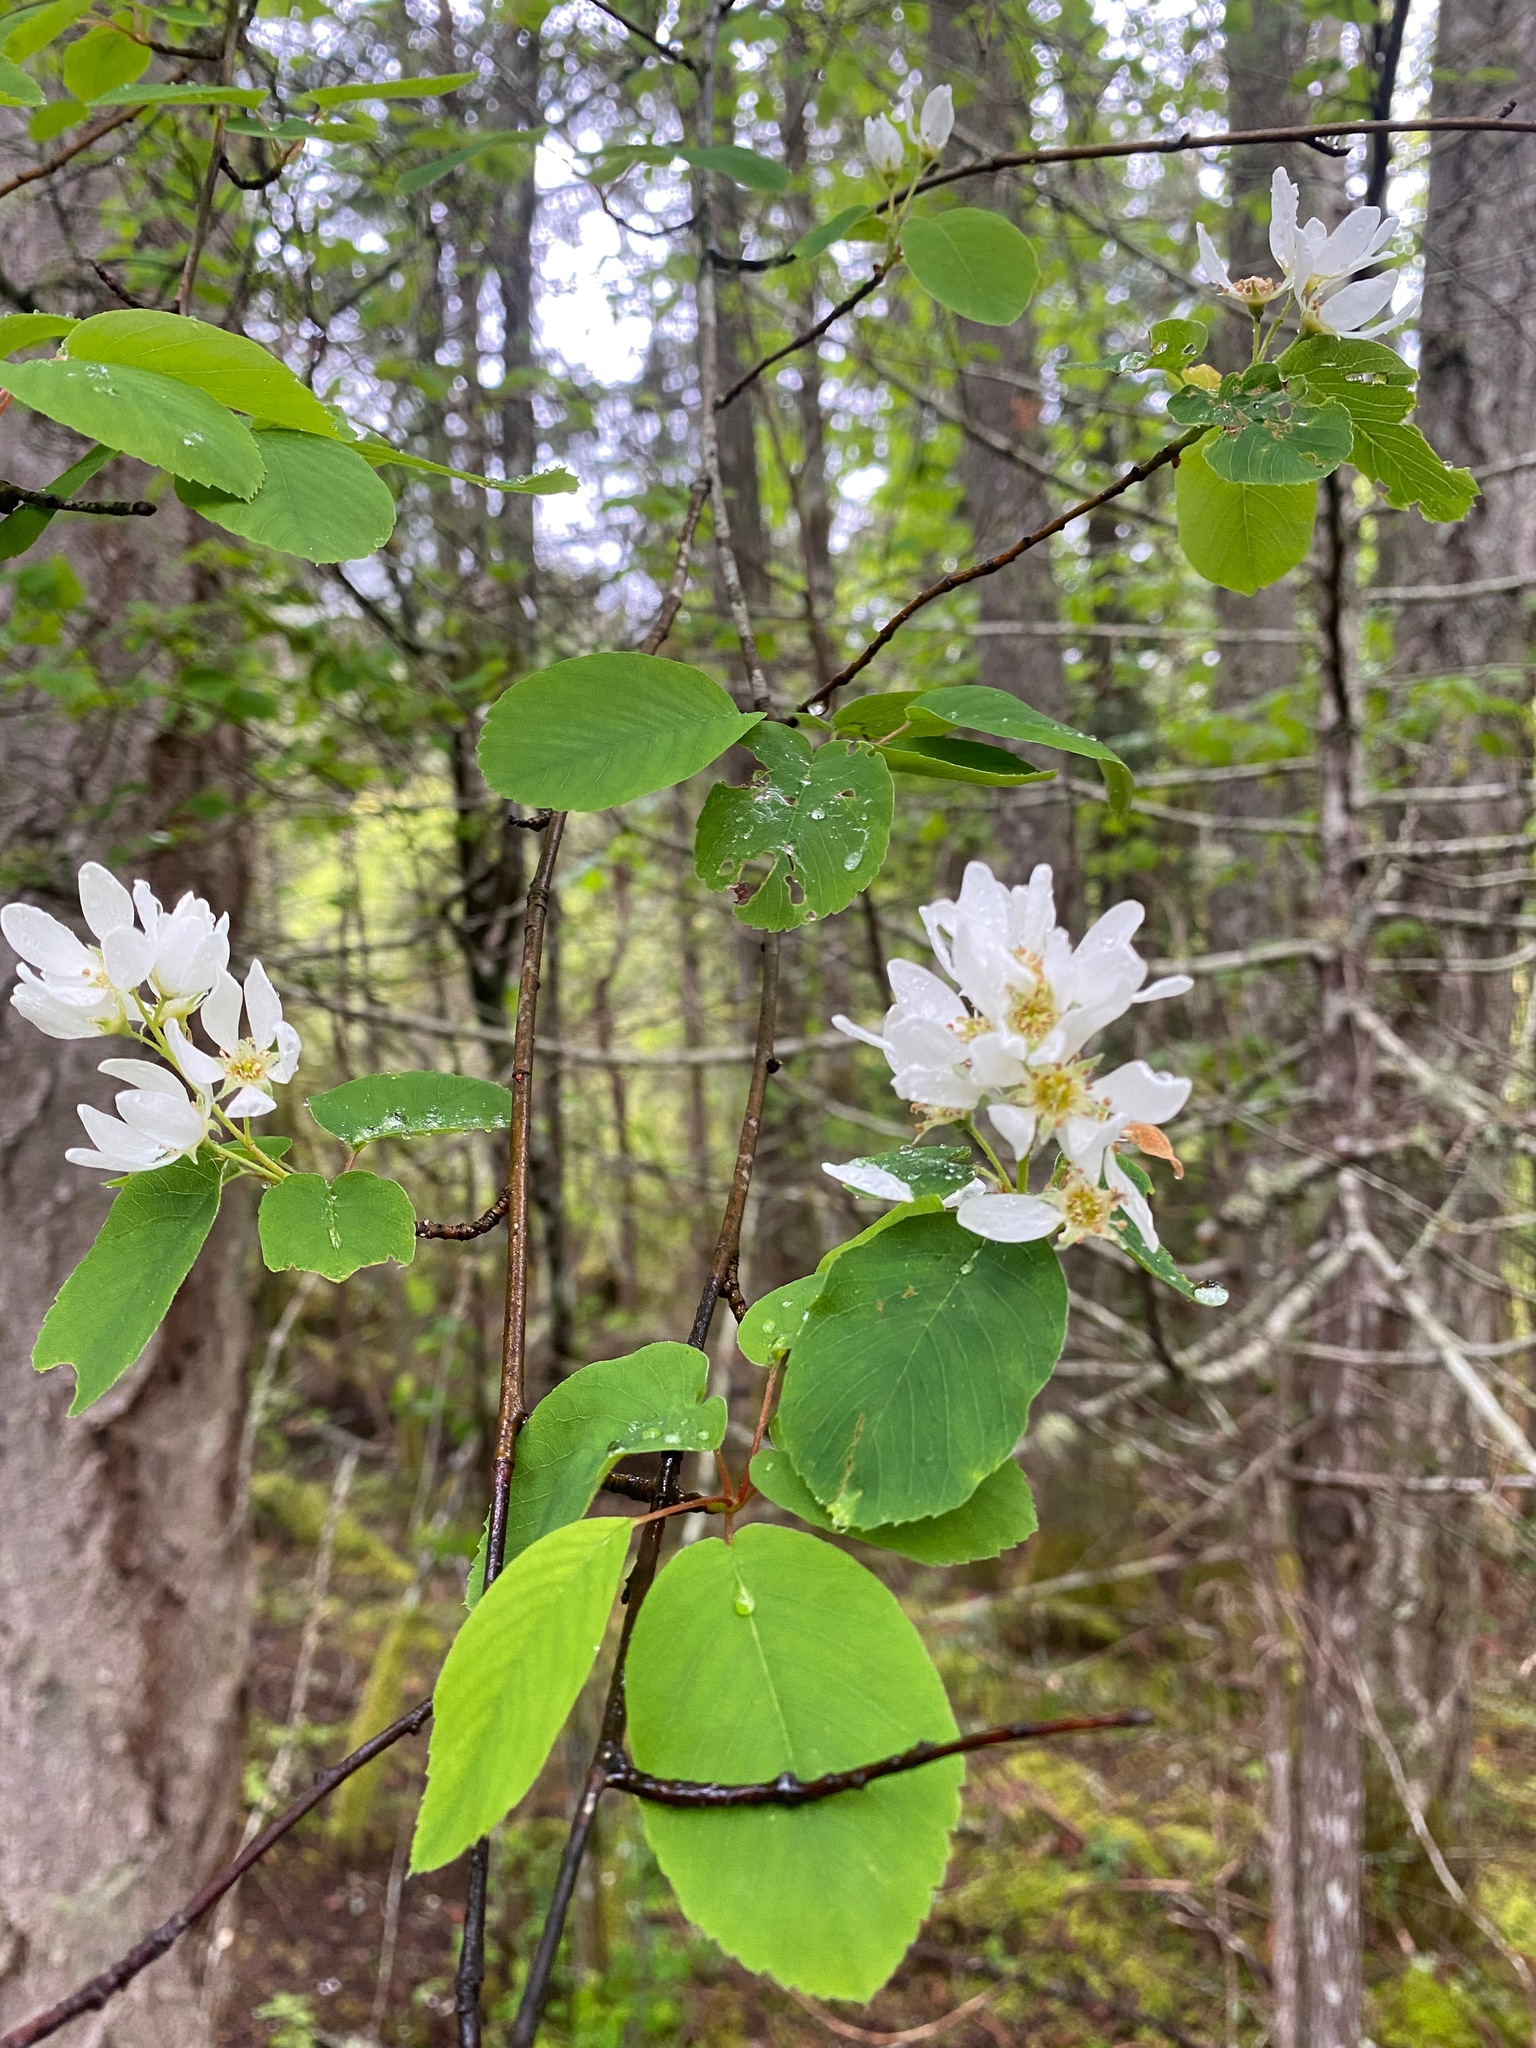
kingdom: Plantae
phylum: Tracheophyta
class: Magnoliopsida
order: Rosales
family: Rosaceae
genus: Amelanchier
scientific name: Amelanchier alnifolia
